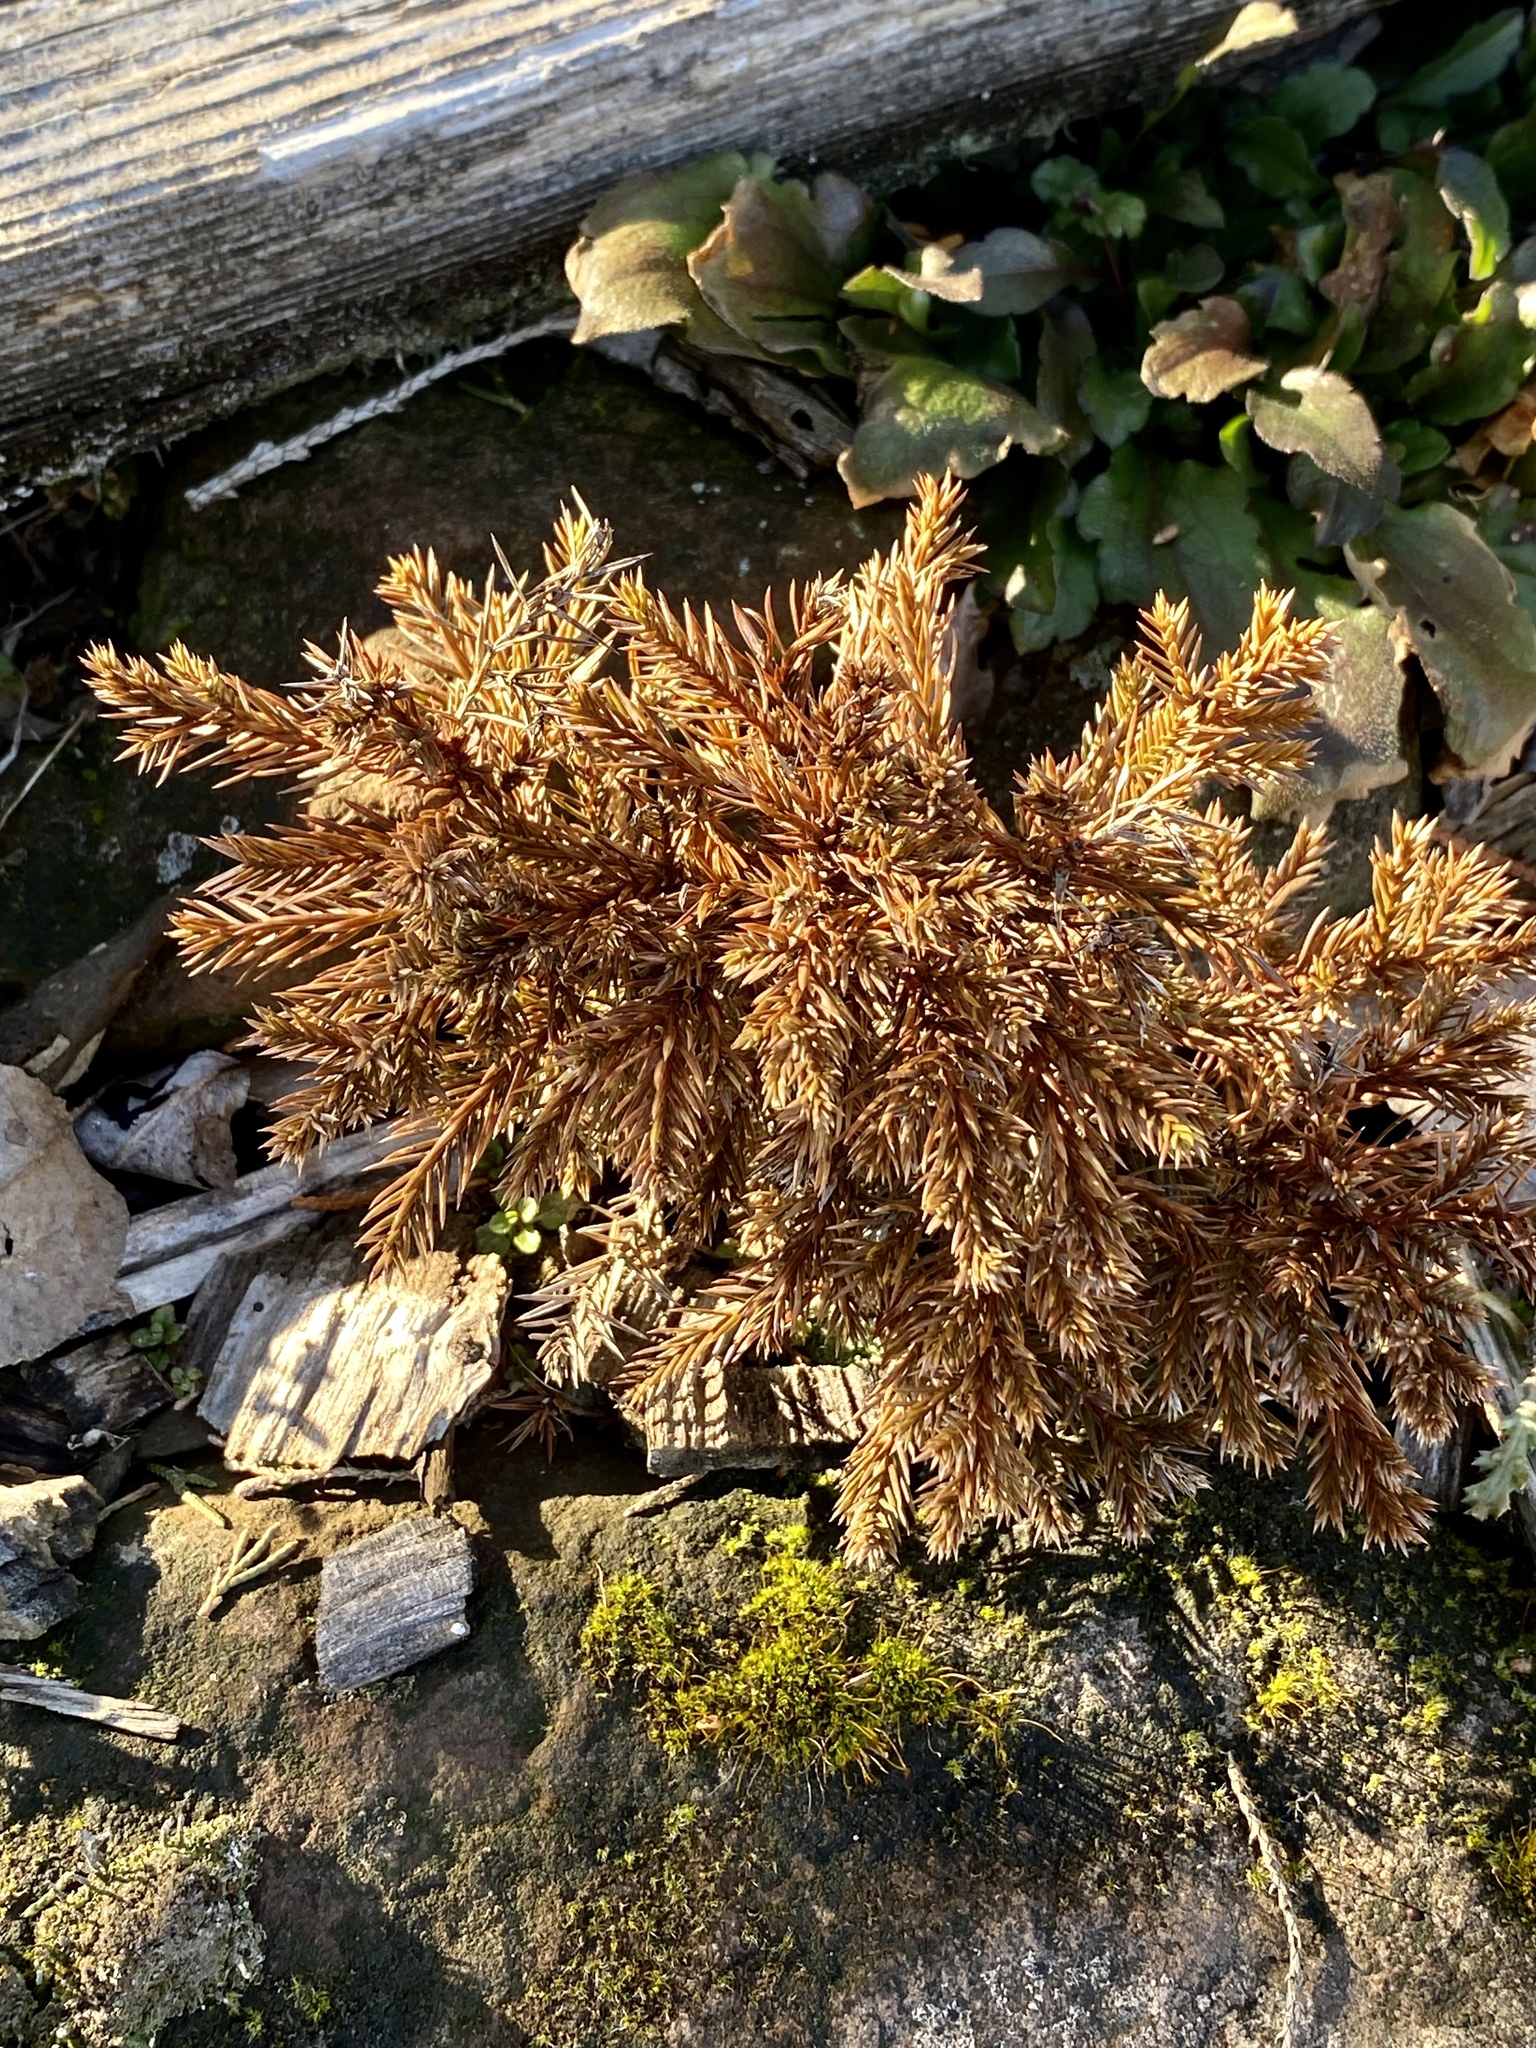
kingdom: Plantae
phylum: Tracheophyta
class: Pinopsida
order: Pinales
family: Cupressaceae
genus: Juniperus
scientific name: Juniperus virginiana
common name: Red juniper
